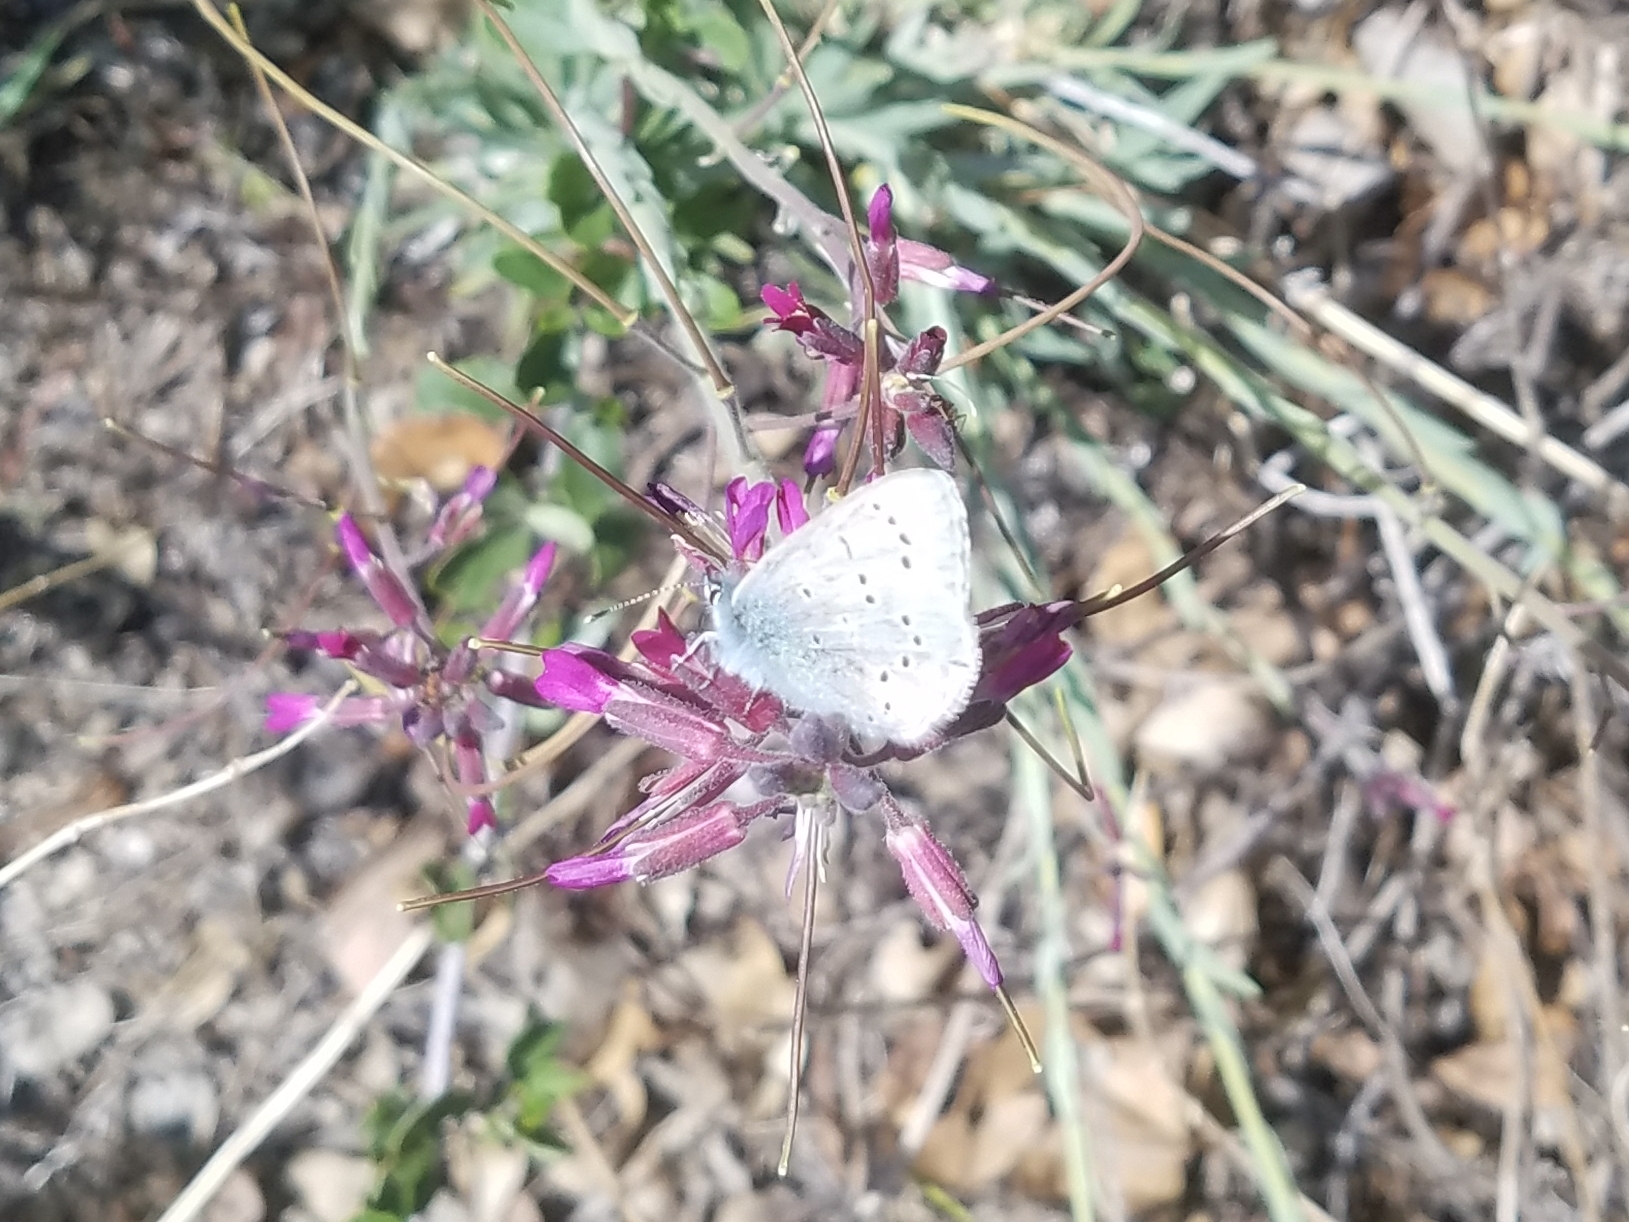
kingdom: Animalia
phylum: Arthropoda
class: Insecta
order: Lepidoptera
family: Lycaenidae
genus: Glaucopsyche
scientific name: Glaucopsyche lygdamus
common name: Silvery blue
